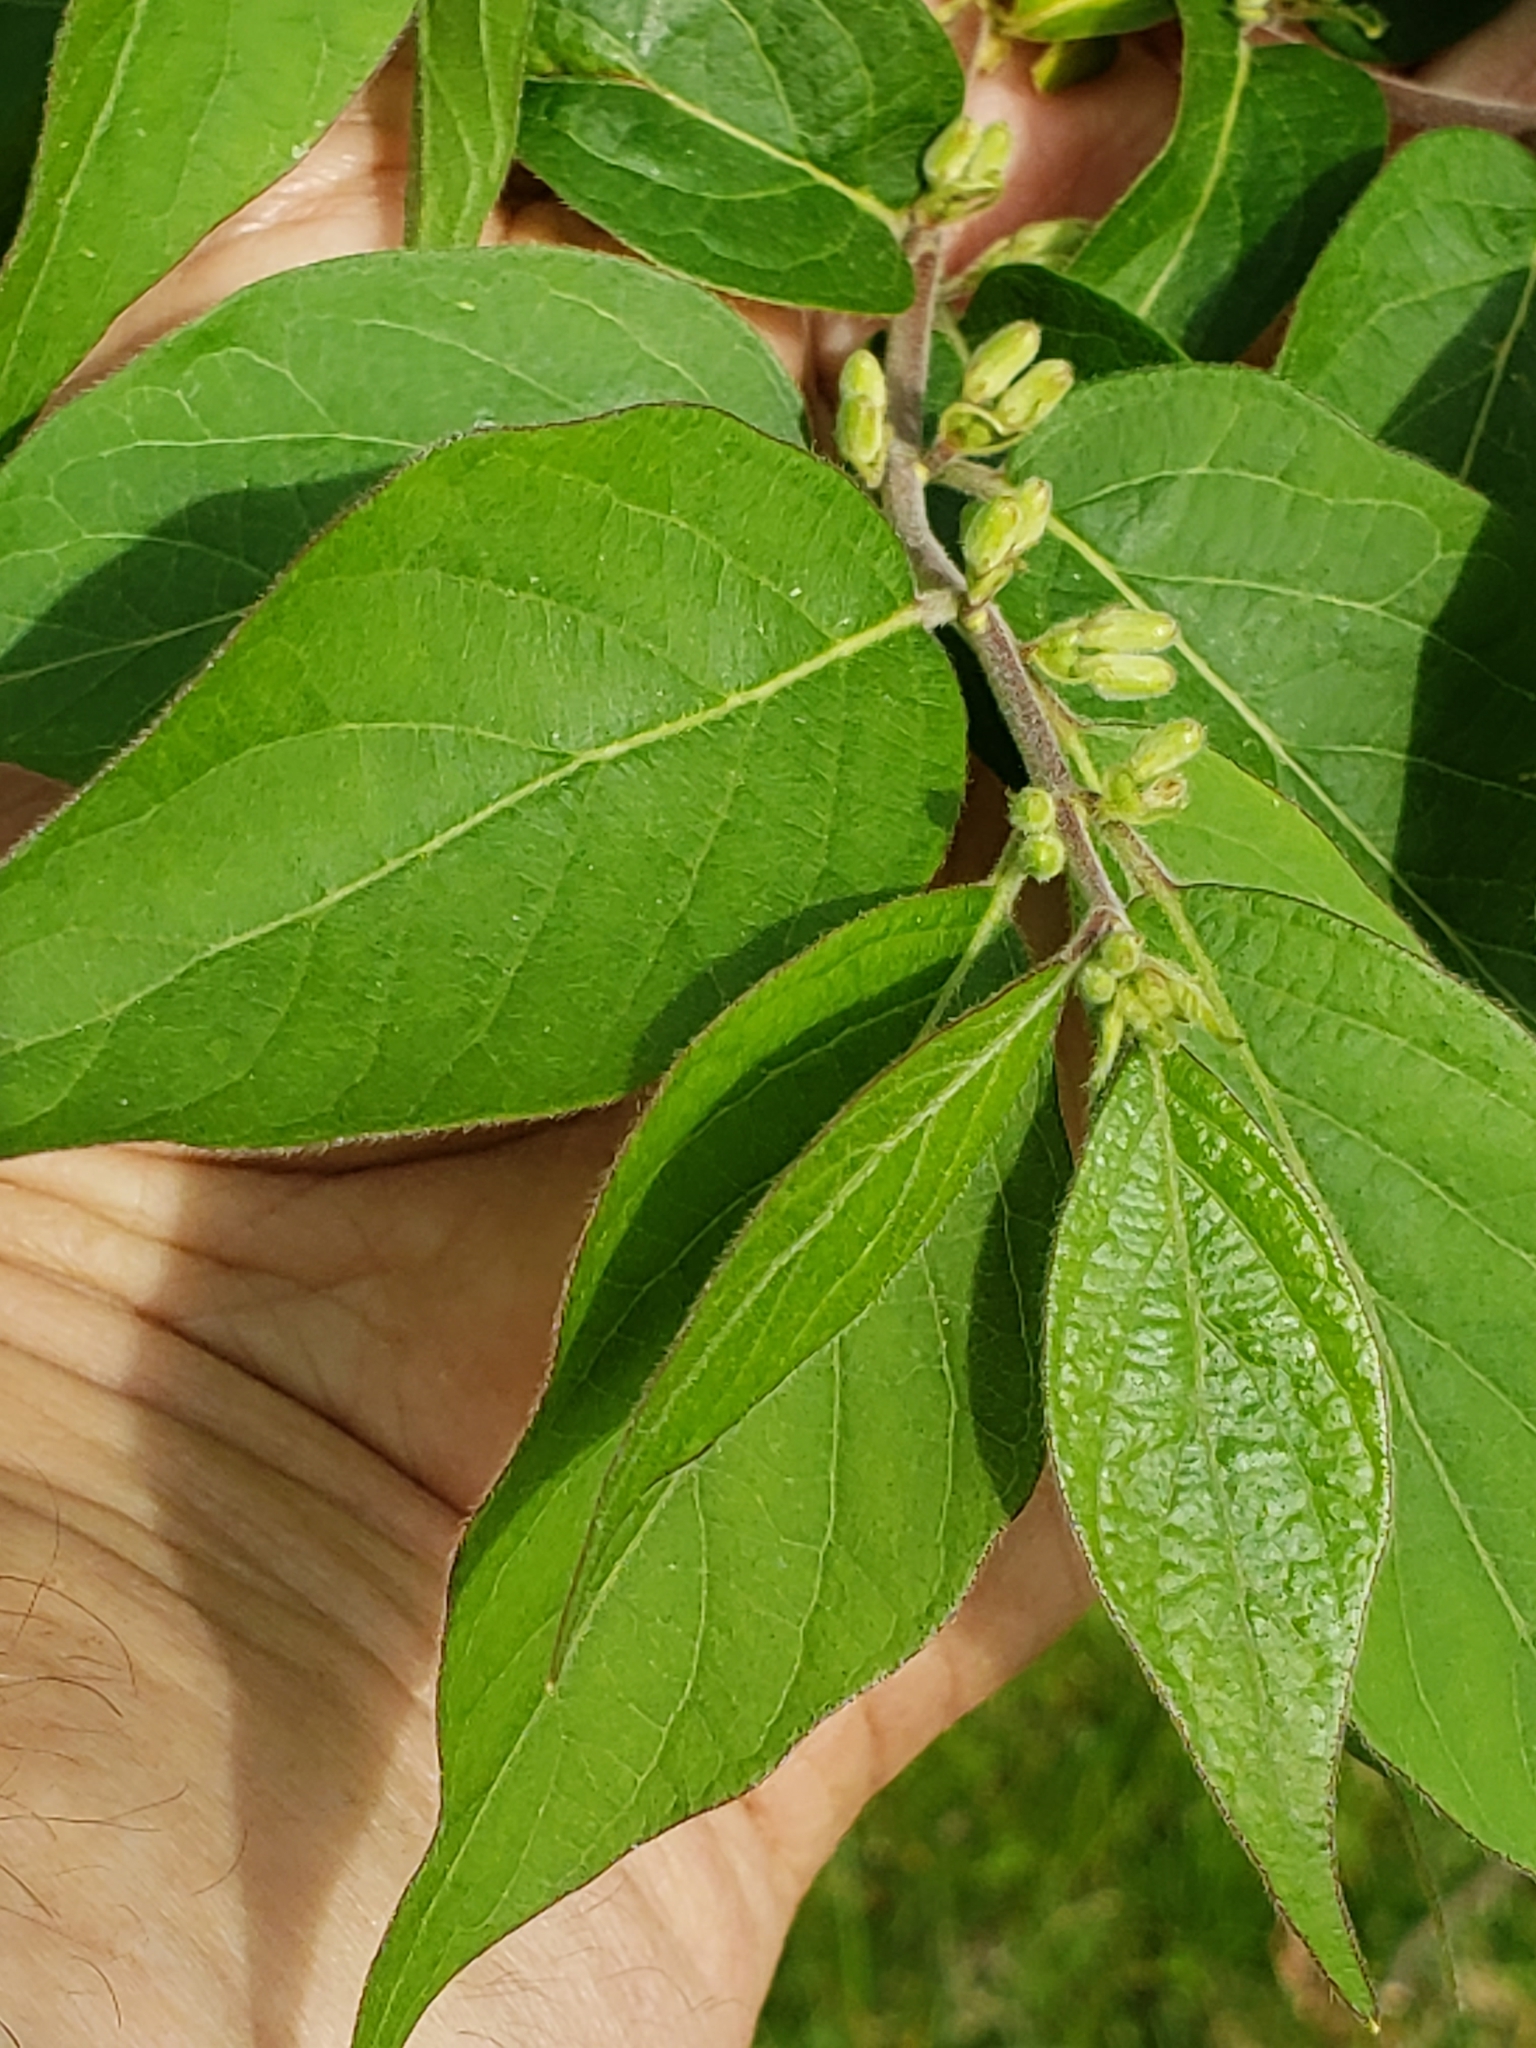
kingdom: Plantae
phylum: Tracheophyta
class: Magnoliopsida
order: Dipsacales
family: Caprifoliaceae
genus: Lonicera
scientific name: Lonicera maackii
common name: Amur honeysuckle
